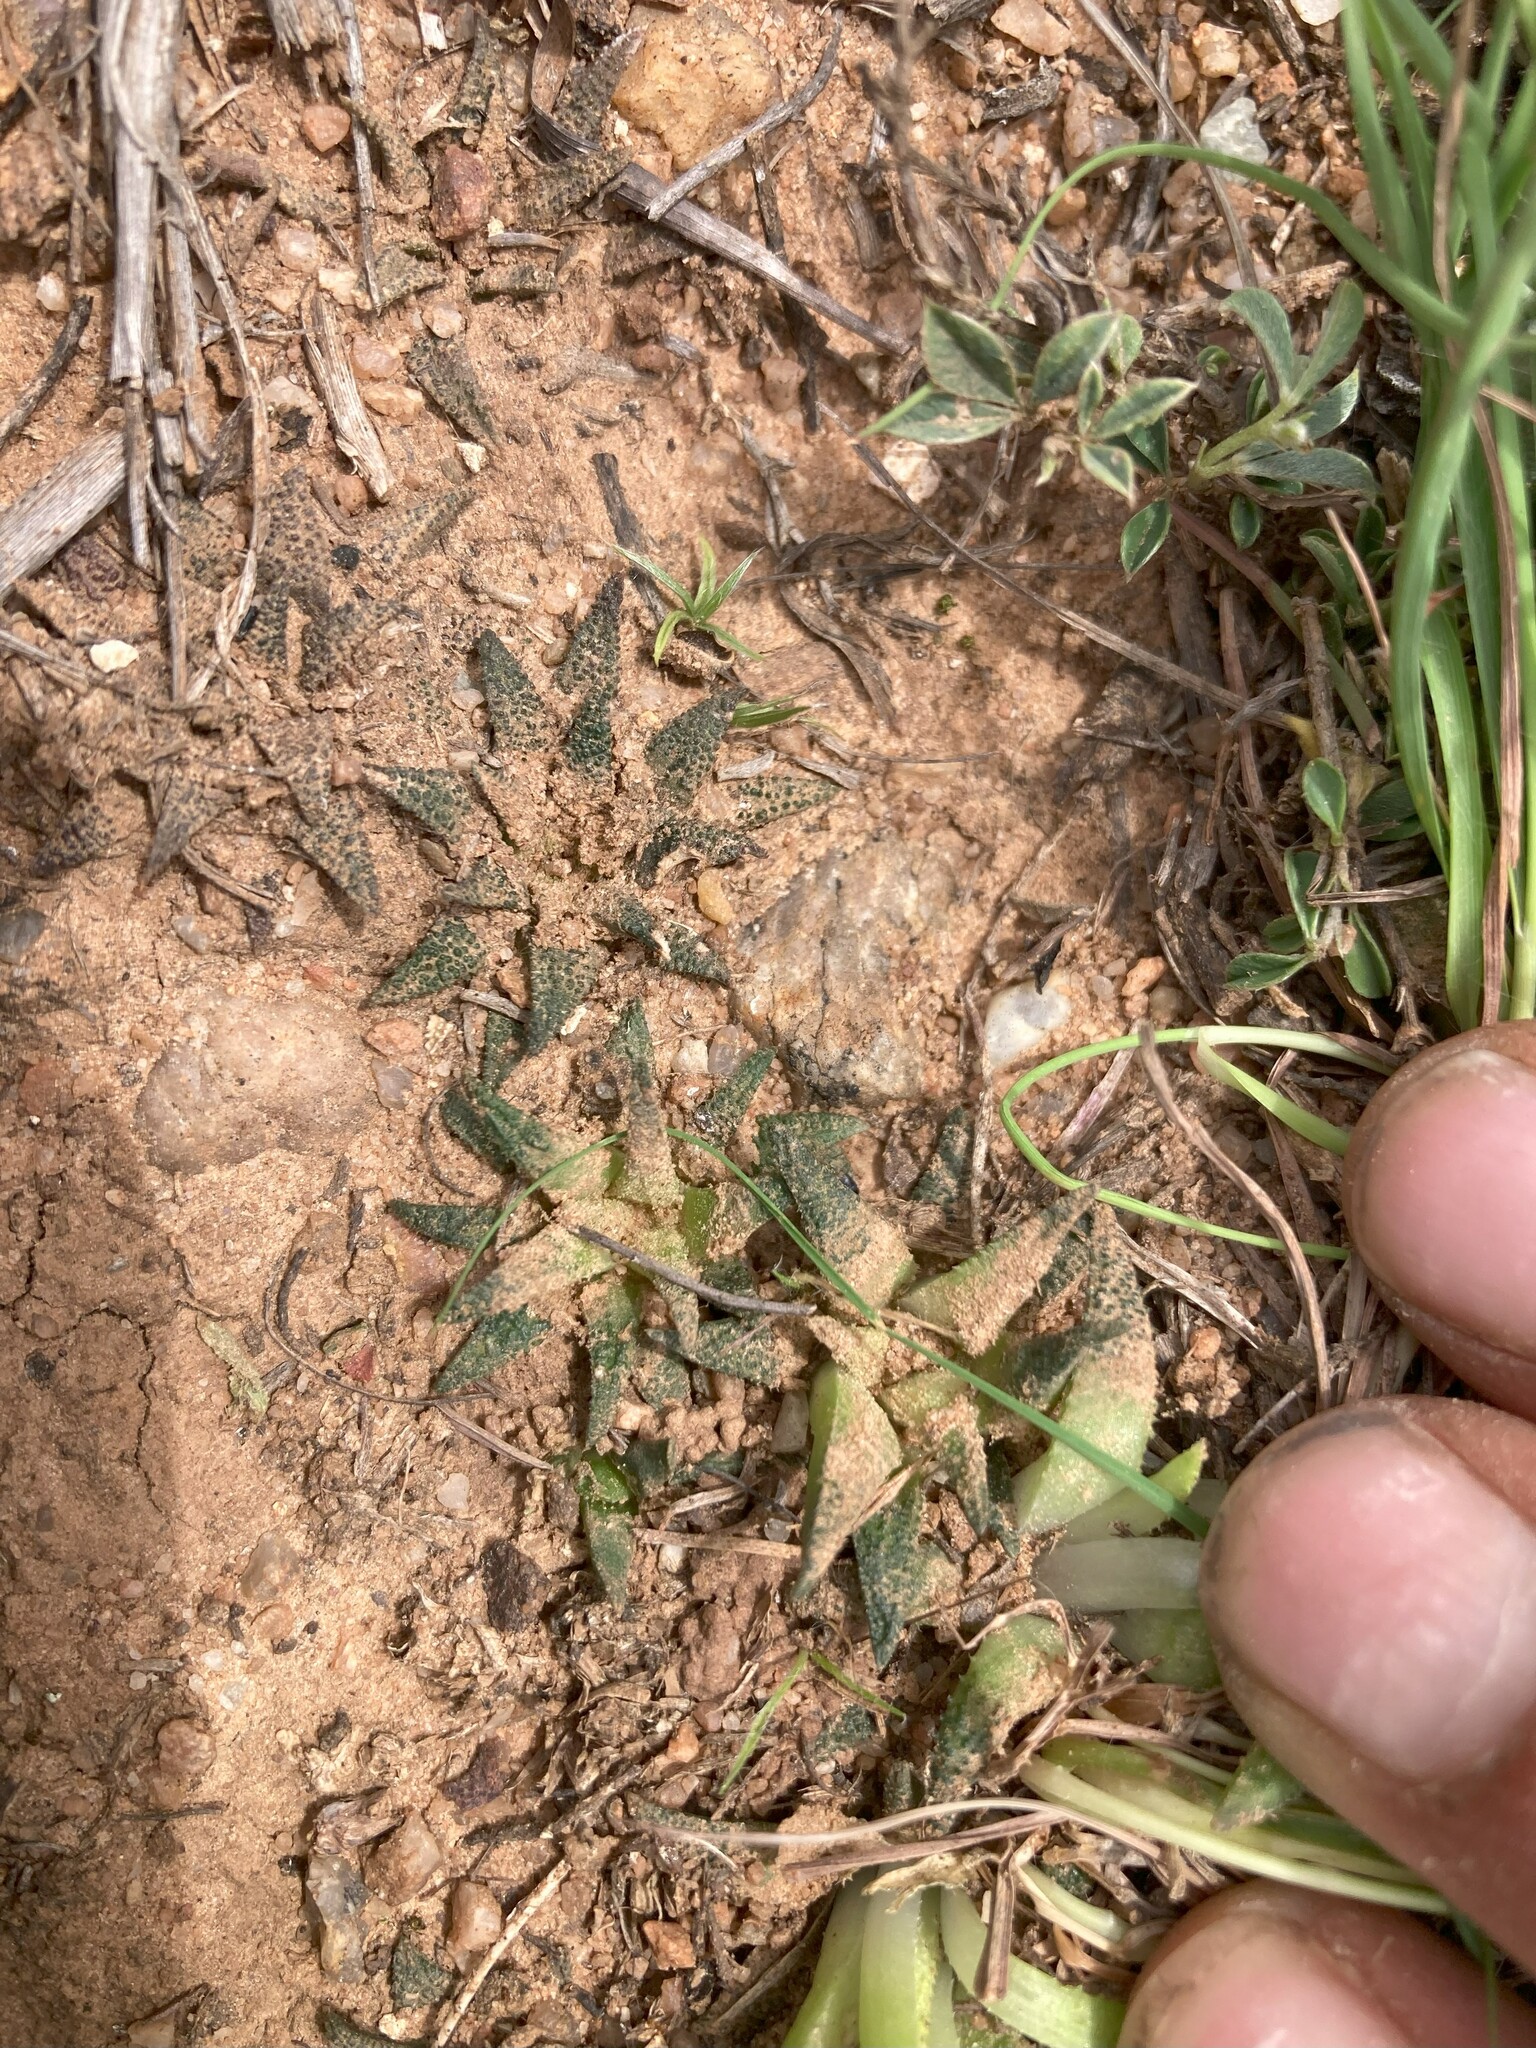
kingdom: Plantae
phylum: Tracheophyta
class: Liliopsida
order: Asparagales
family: Asphodelaceae
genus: Haworthia
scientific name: Haworthia parksiana
